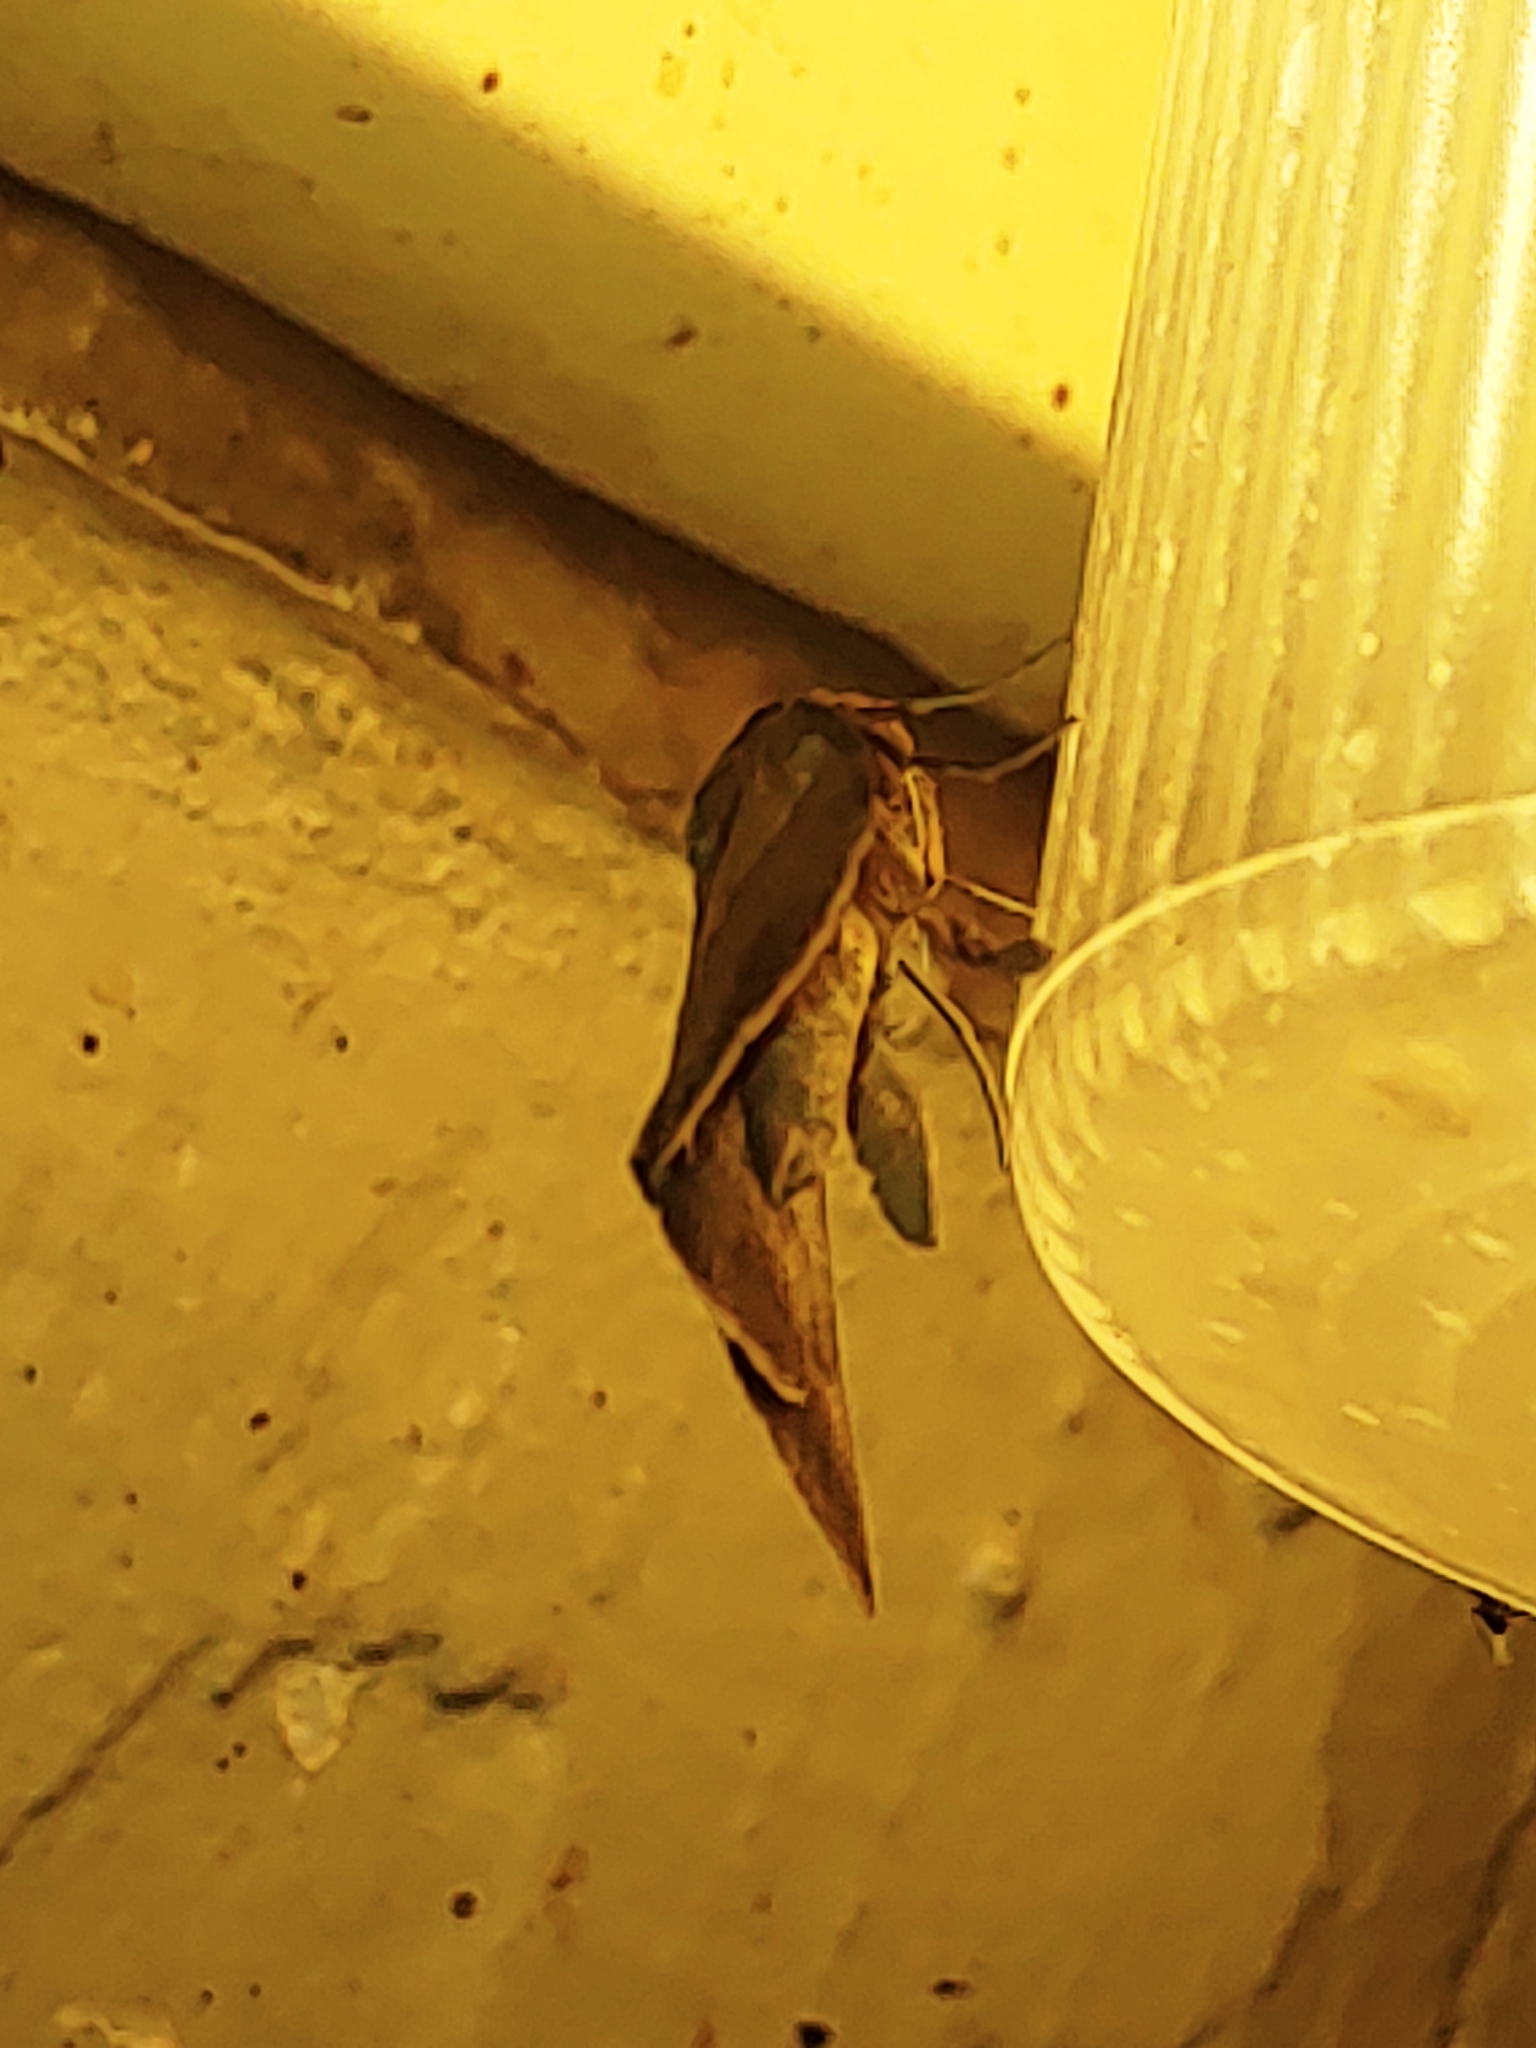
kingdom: Animalia
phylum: Arthropoda
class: Insecta
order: Lepidoptera
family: Erebidae
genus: Mocis
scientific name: Mocis latipes
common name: Striped grass looper
